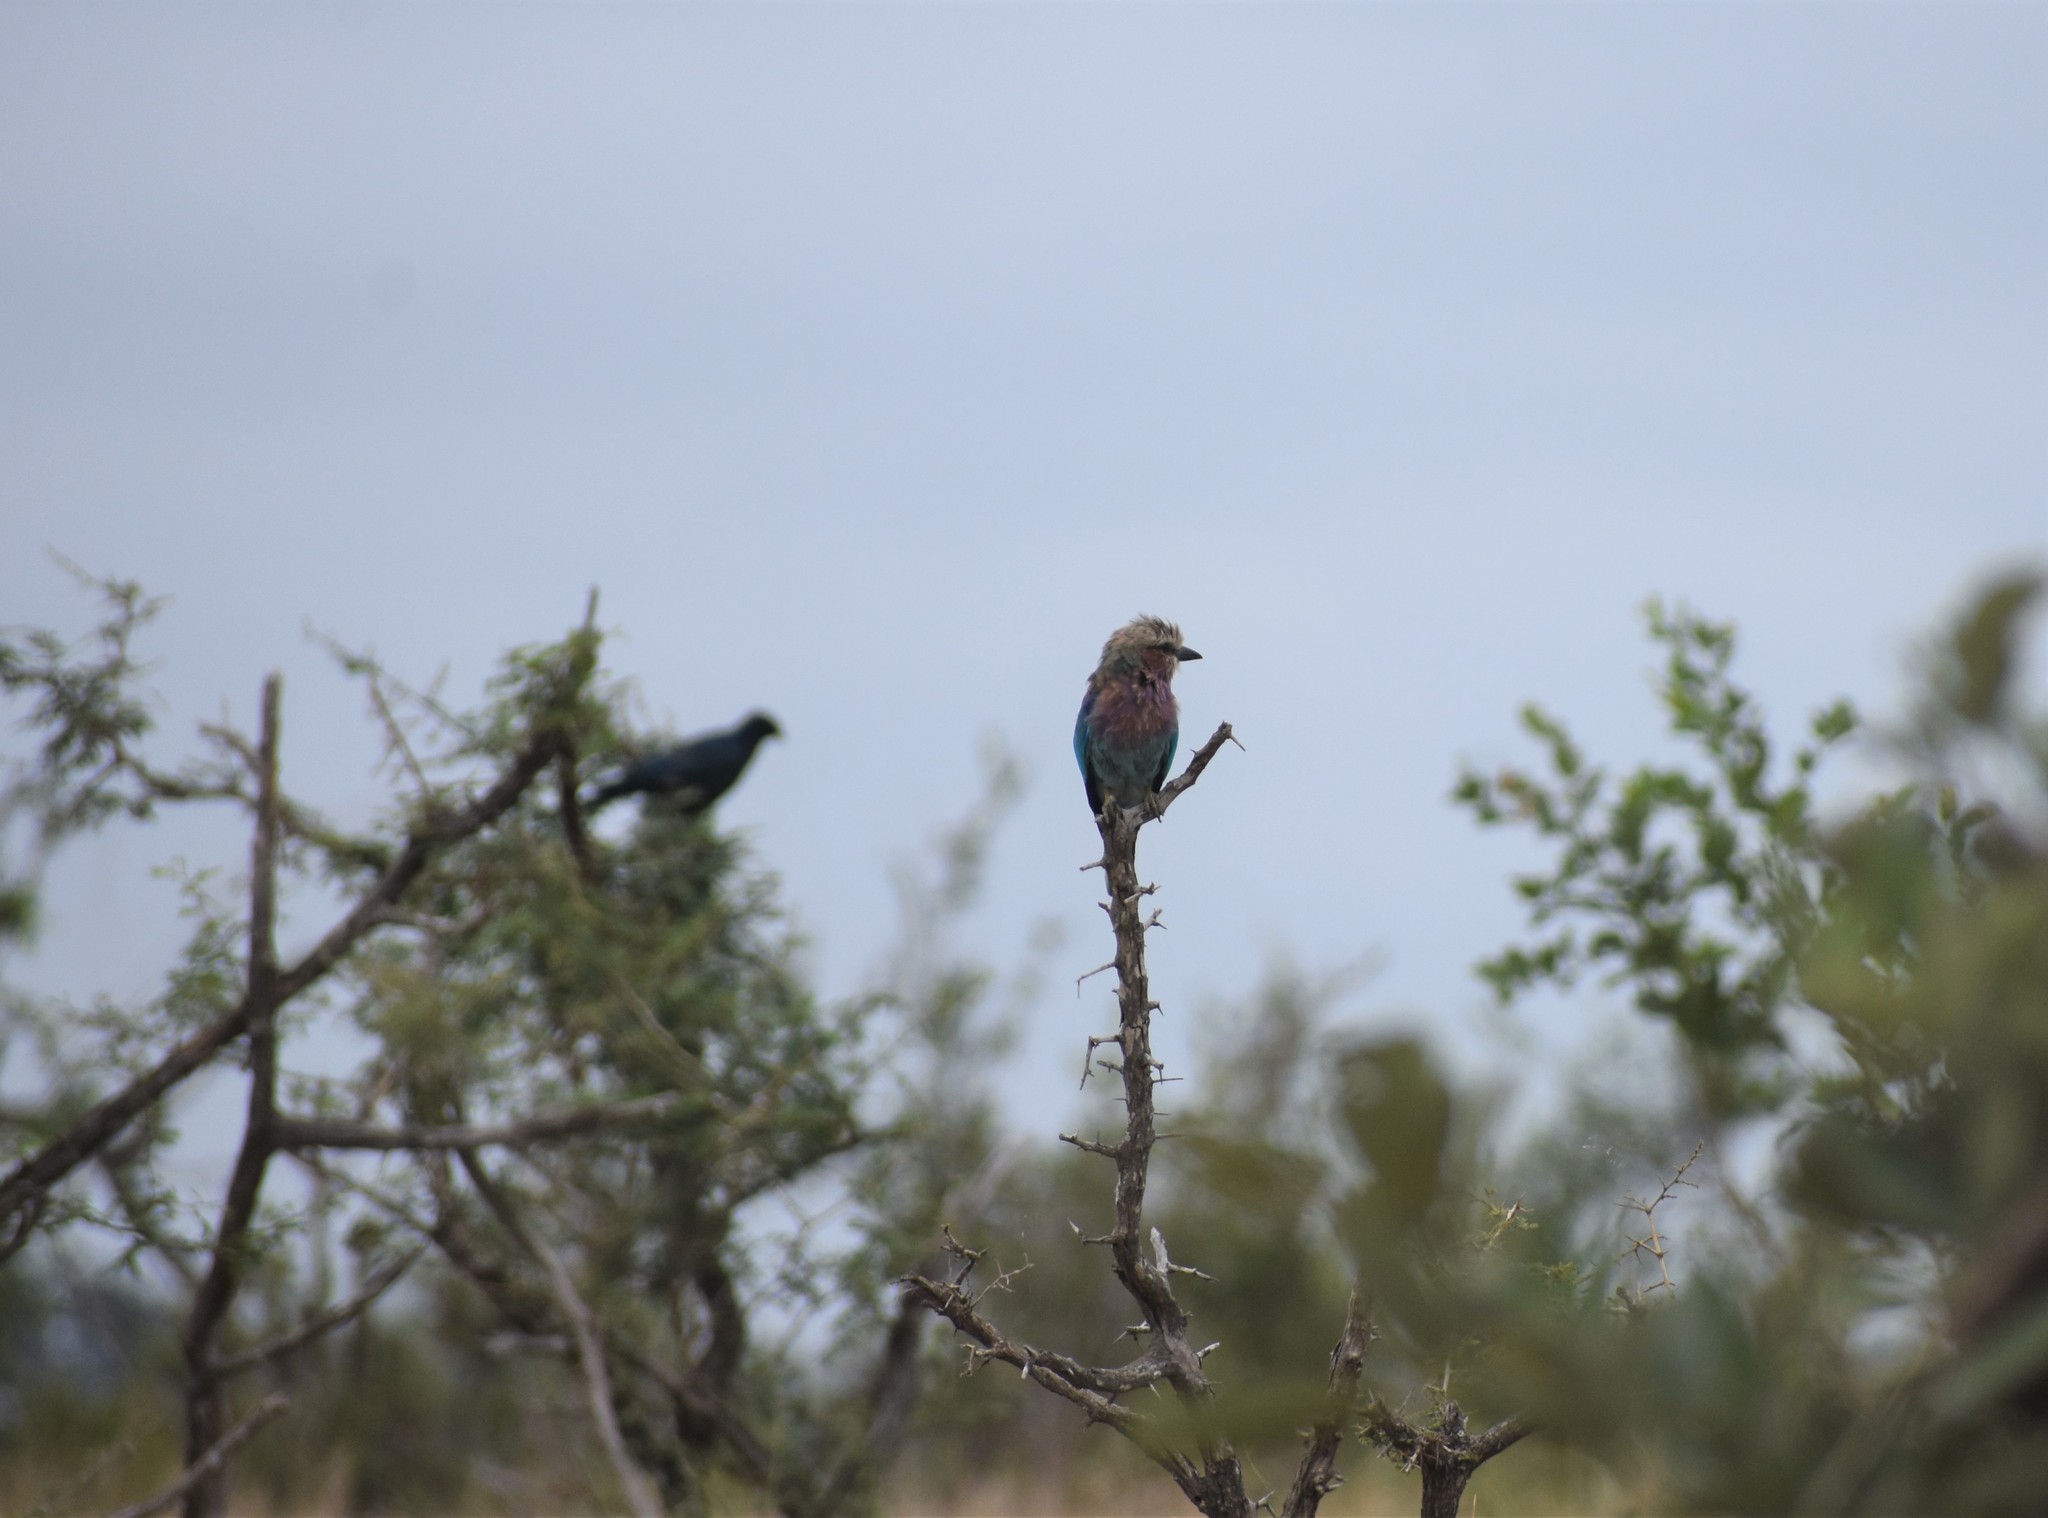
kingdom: Animalia
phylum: Chordata
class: Aves
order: Coraciiformes
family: Coraciidae
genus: Coracias
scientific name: Coracias caudatus
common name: Lilac-breasted roller
